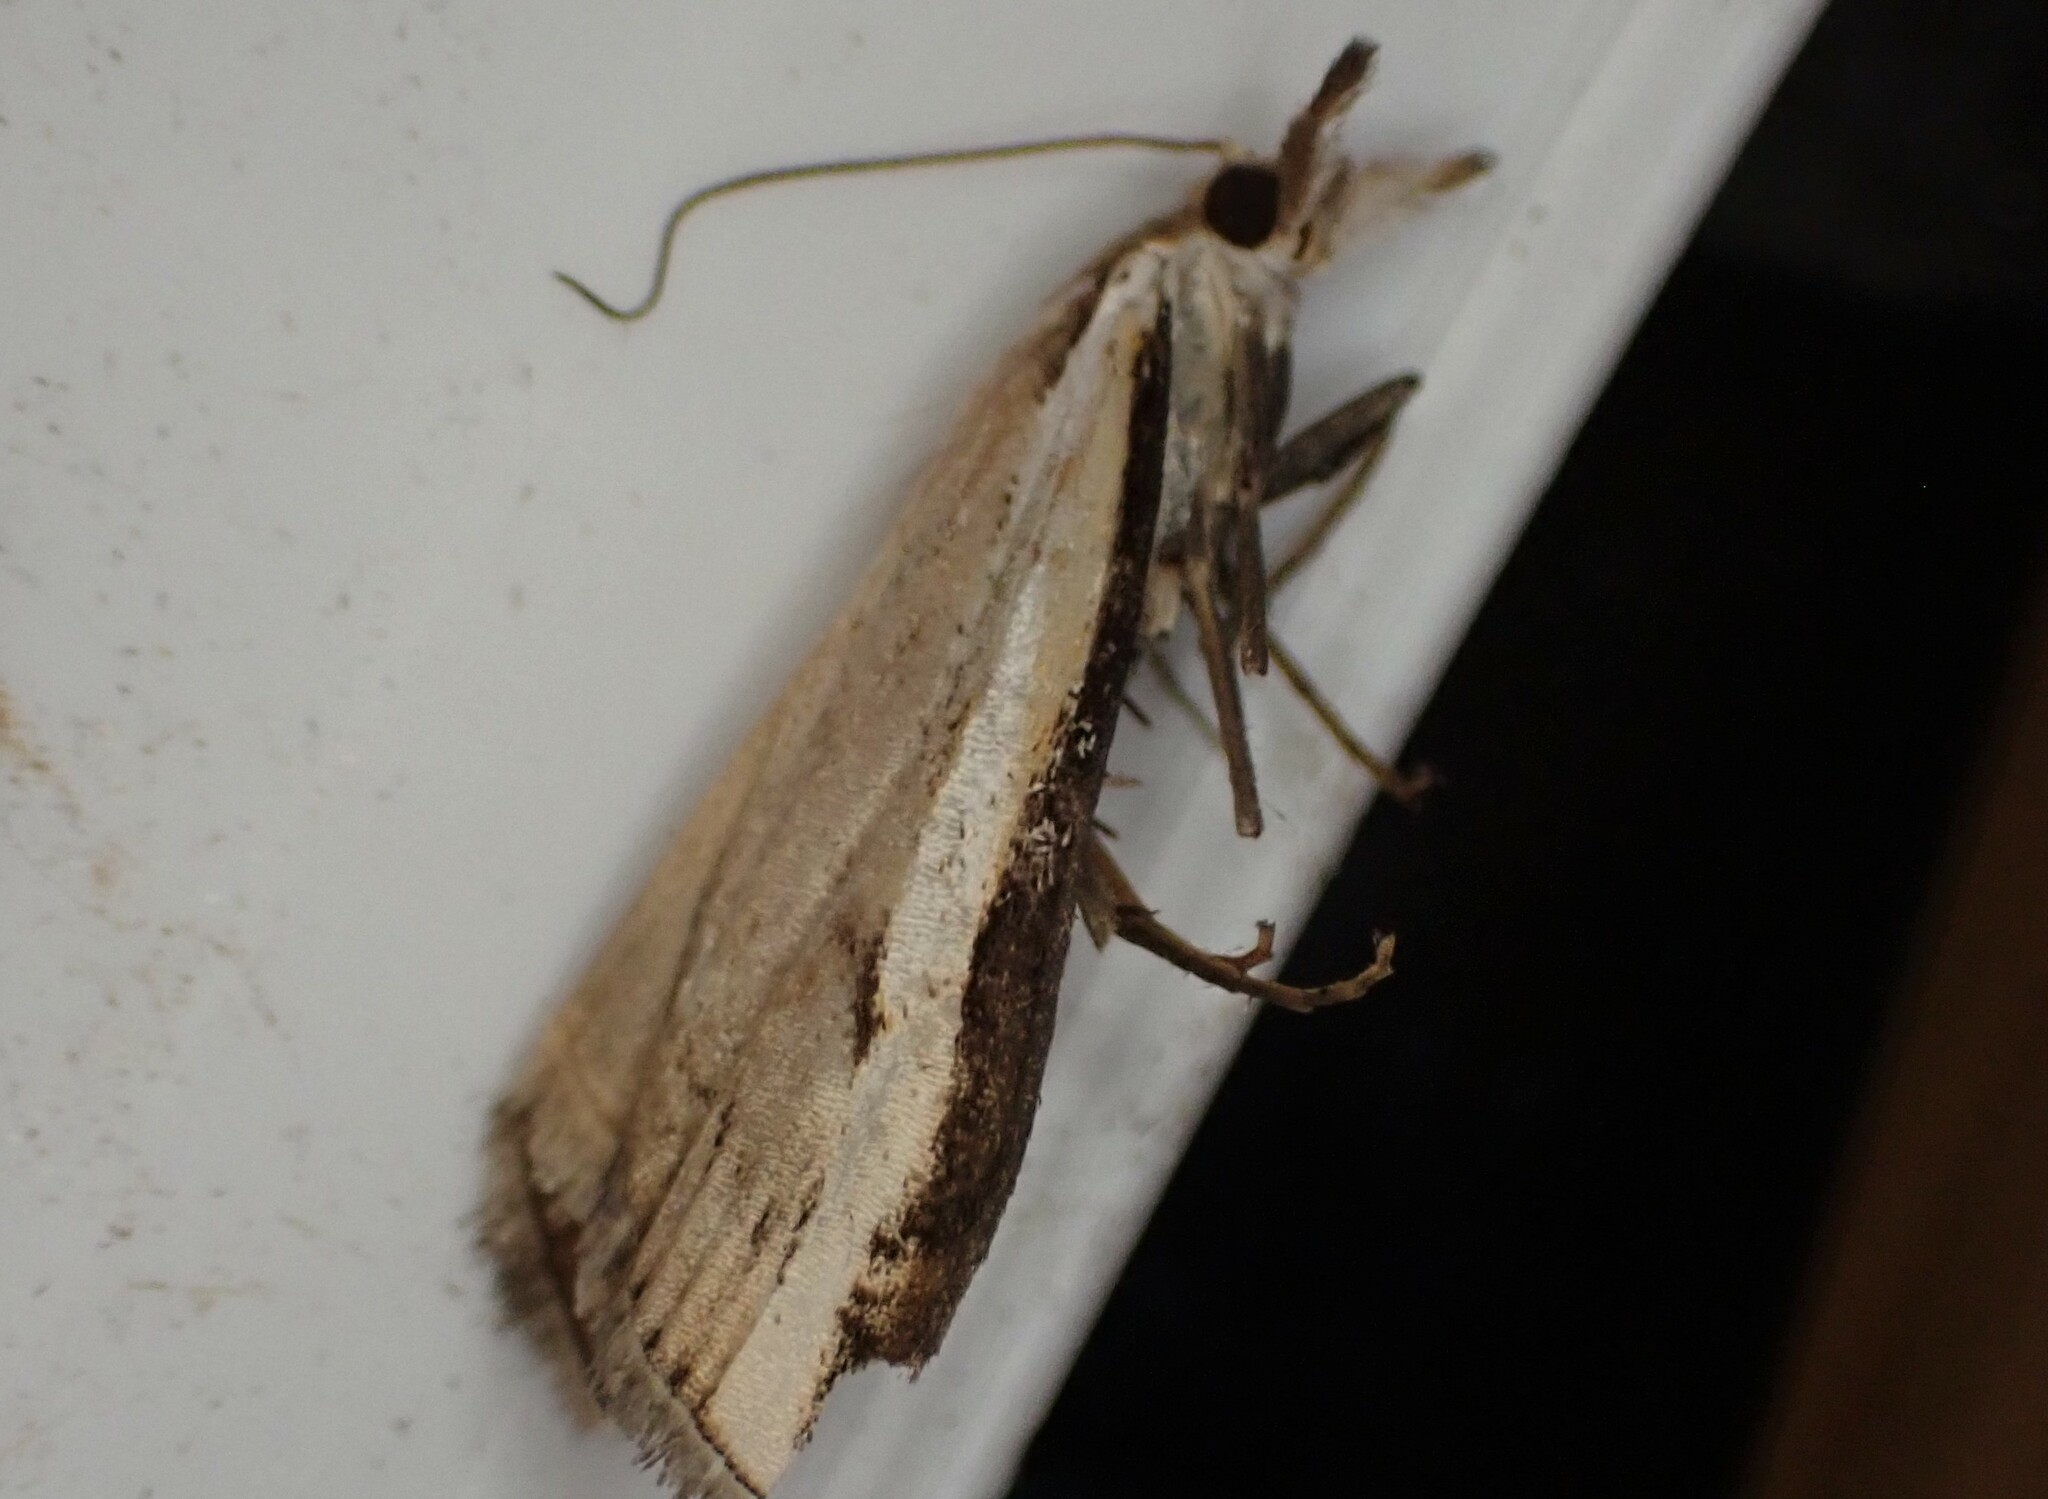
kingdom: Animalia
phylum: Arthropoda
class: Insecta
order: Lepidoptera
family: Crambidae
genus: Orocrambus
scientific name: Orocrambus flexuosellus
